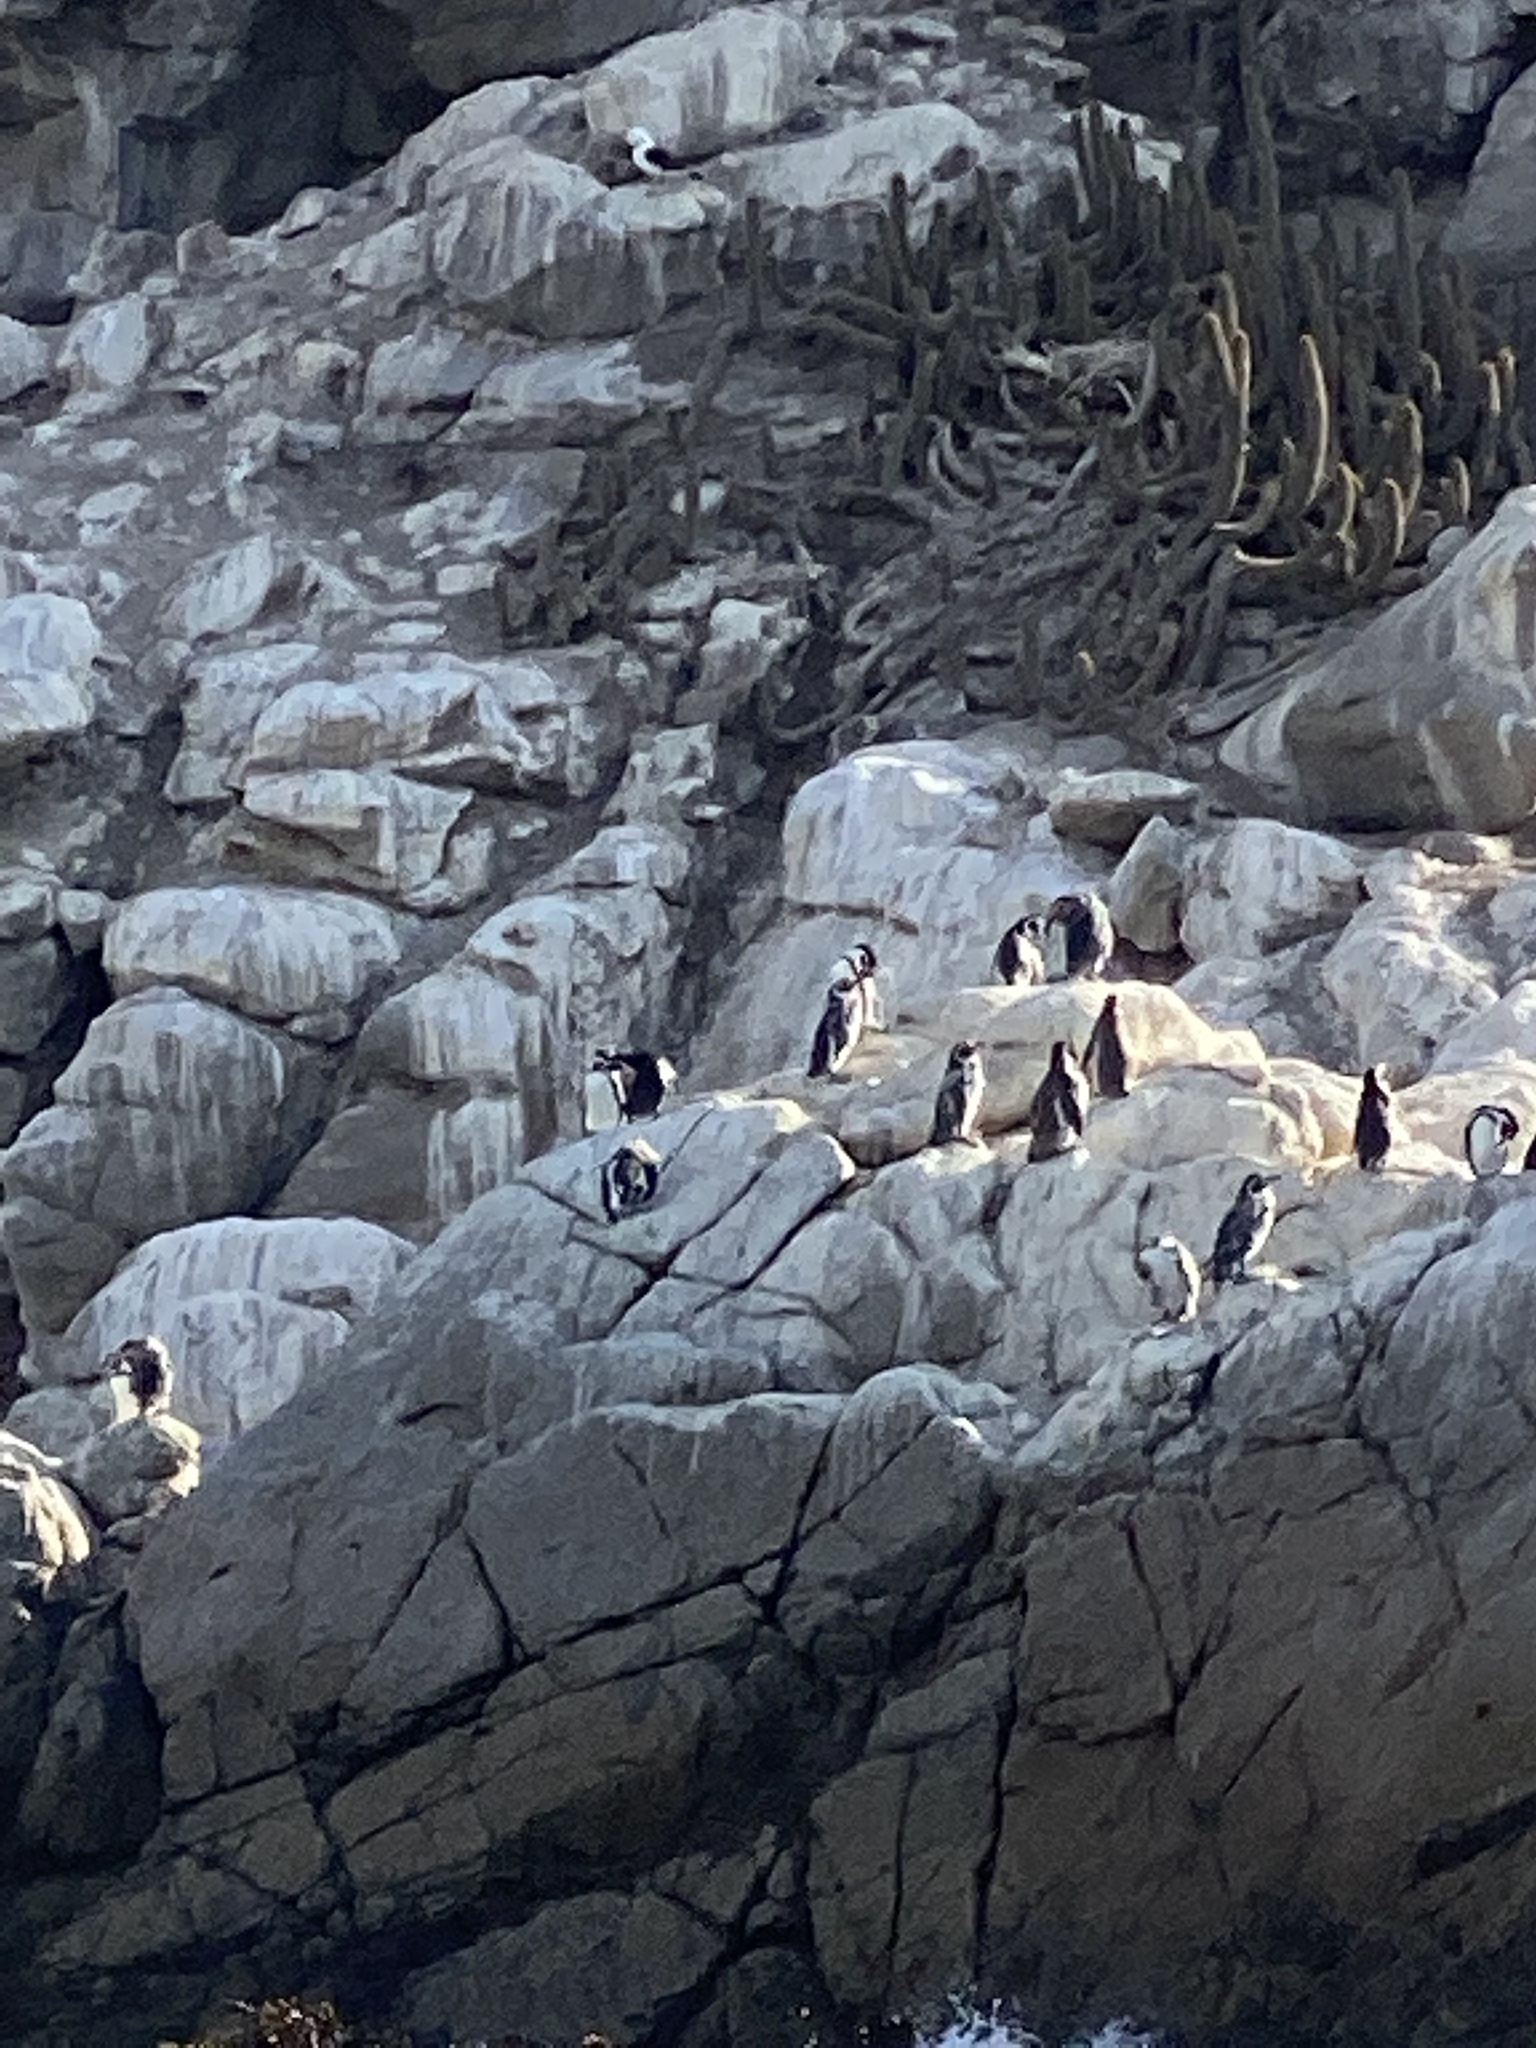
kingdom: Animalia
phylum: Chordata
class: Aves
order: Sphenisciformes
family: Spheniscidae
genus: Spheniscus
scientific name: Spheniscus humboldti
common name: Humboldt penguin
